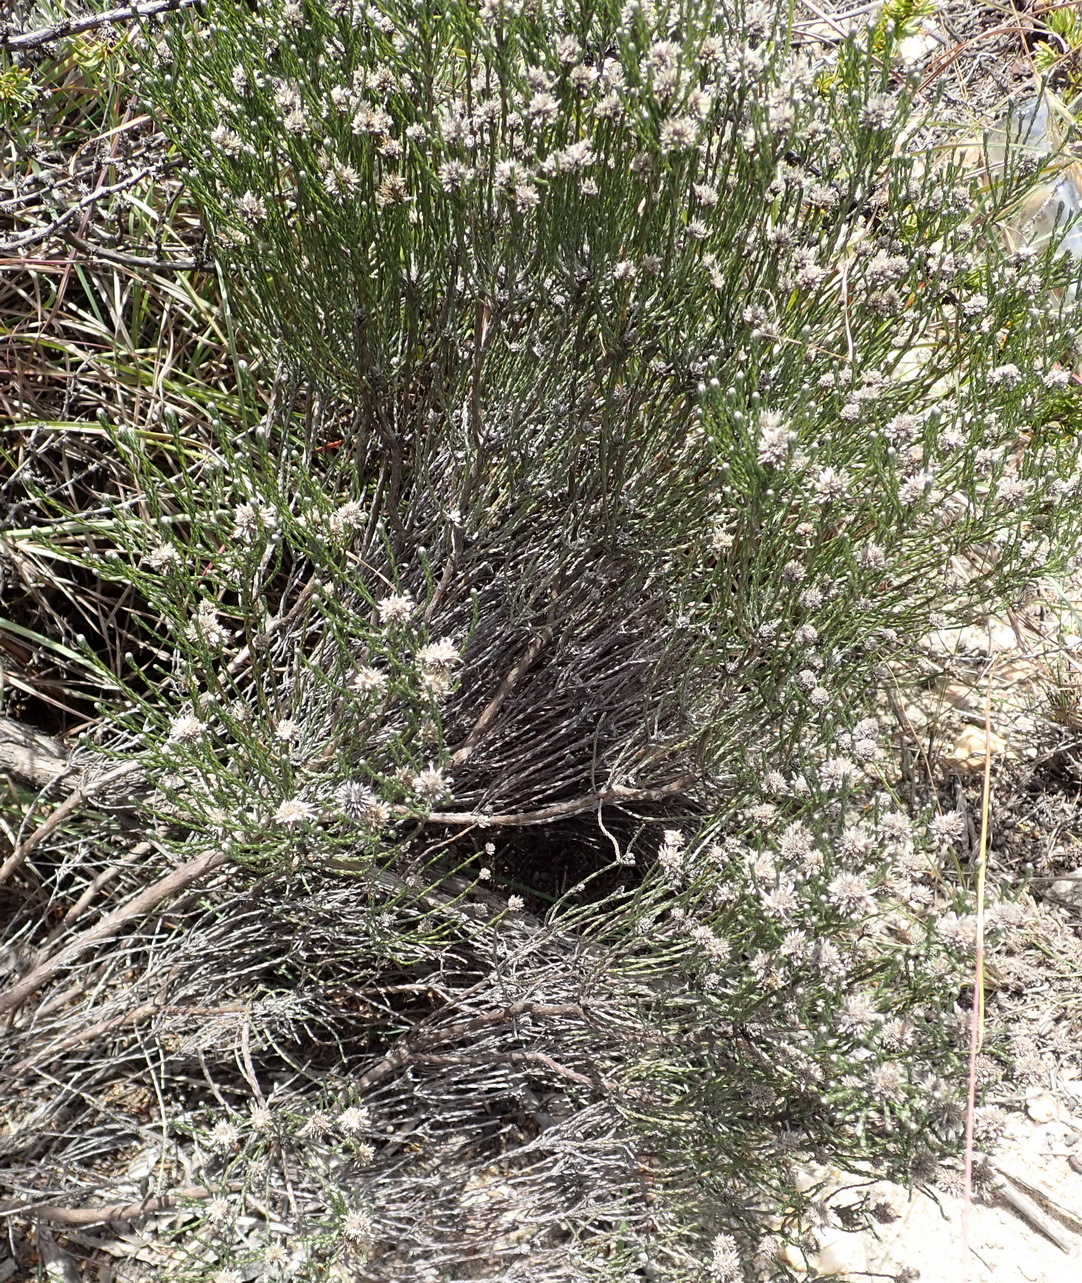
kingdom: Plantae
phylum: Tracheophyta
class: Magnoliopsida
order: Asterales
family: Asteraceae
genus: Stoebe
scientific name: Stoebe microphylla
